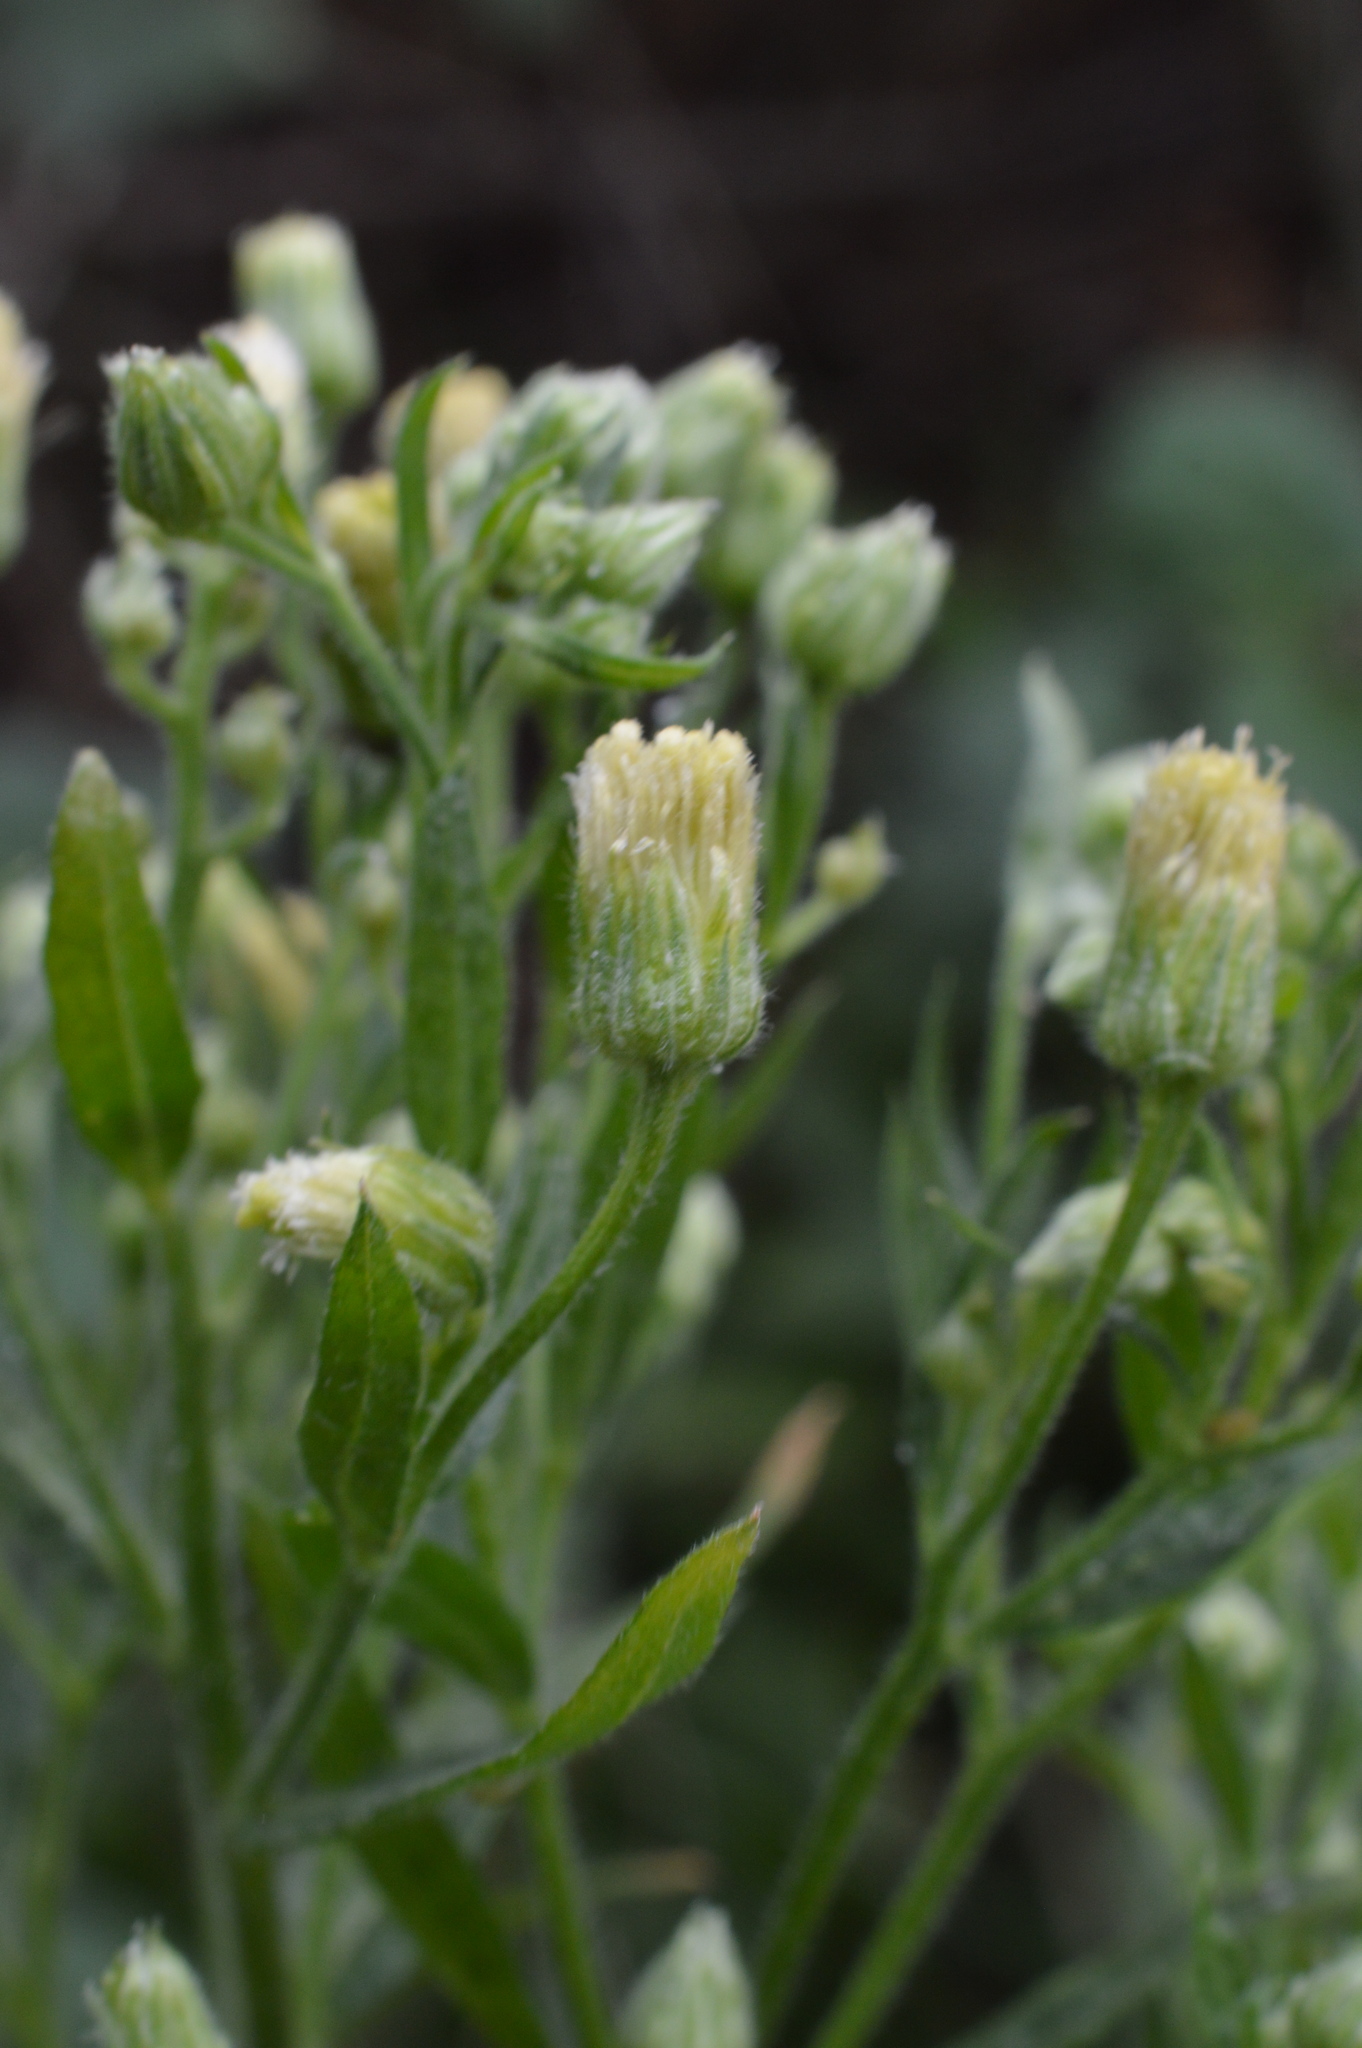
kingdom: Plantae
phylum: Tracheophyta
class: Magnoliopsida
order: Asterales
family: Asteraceae
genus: Erigeron
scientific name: Erigeron sumatrensis
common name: Daisy
